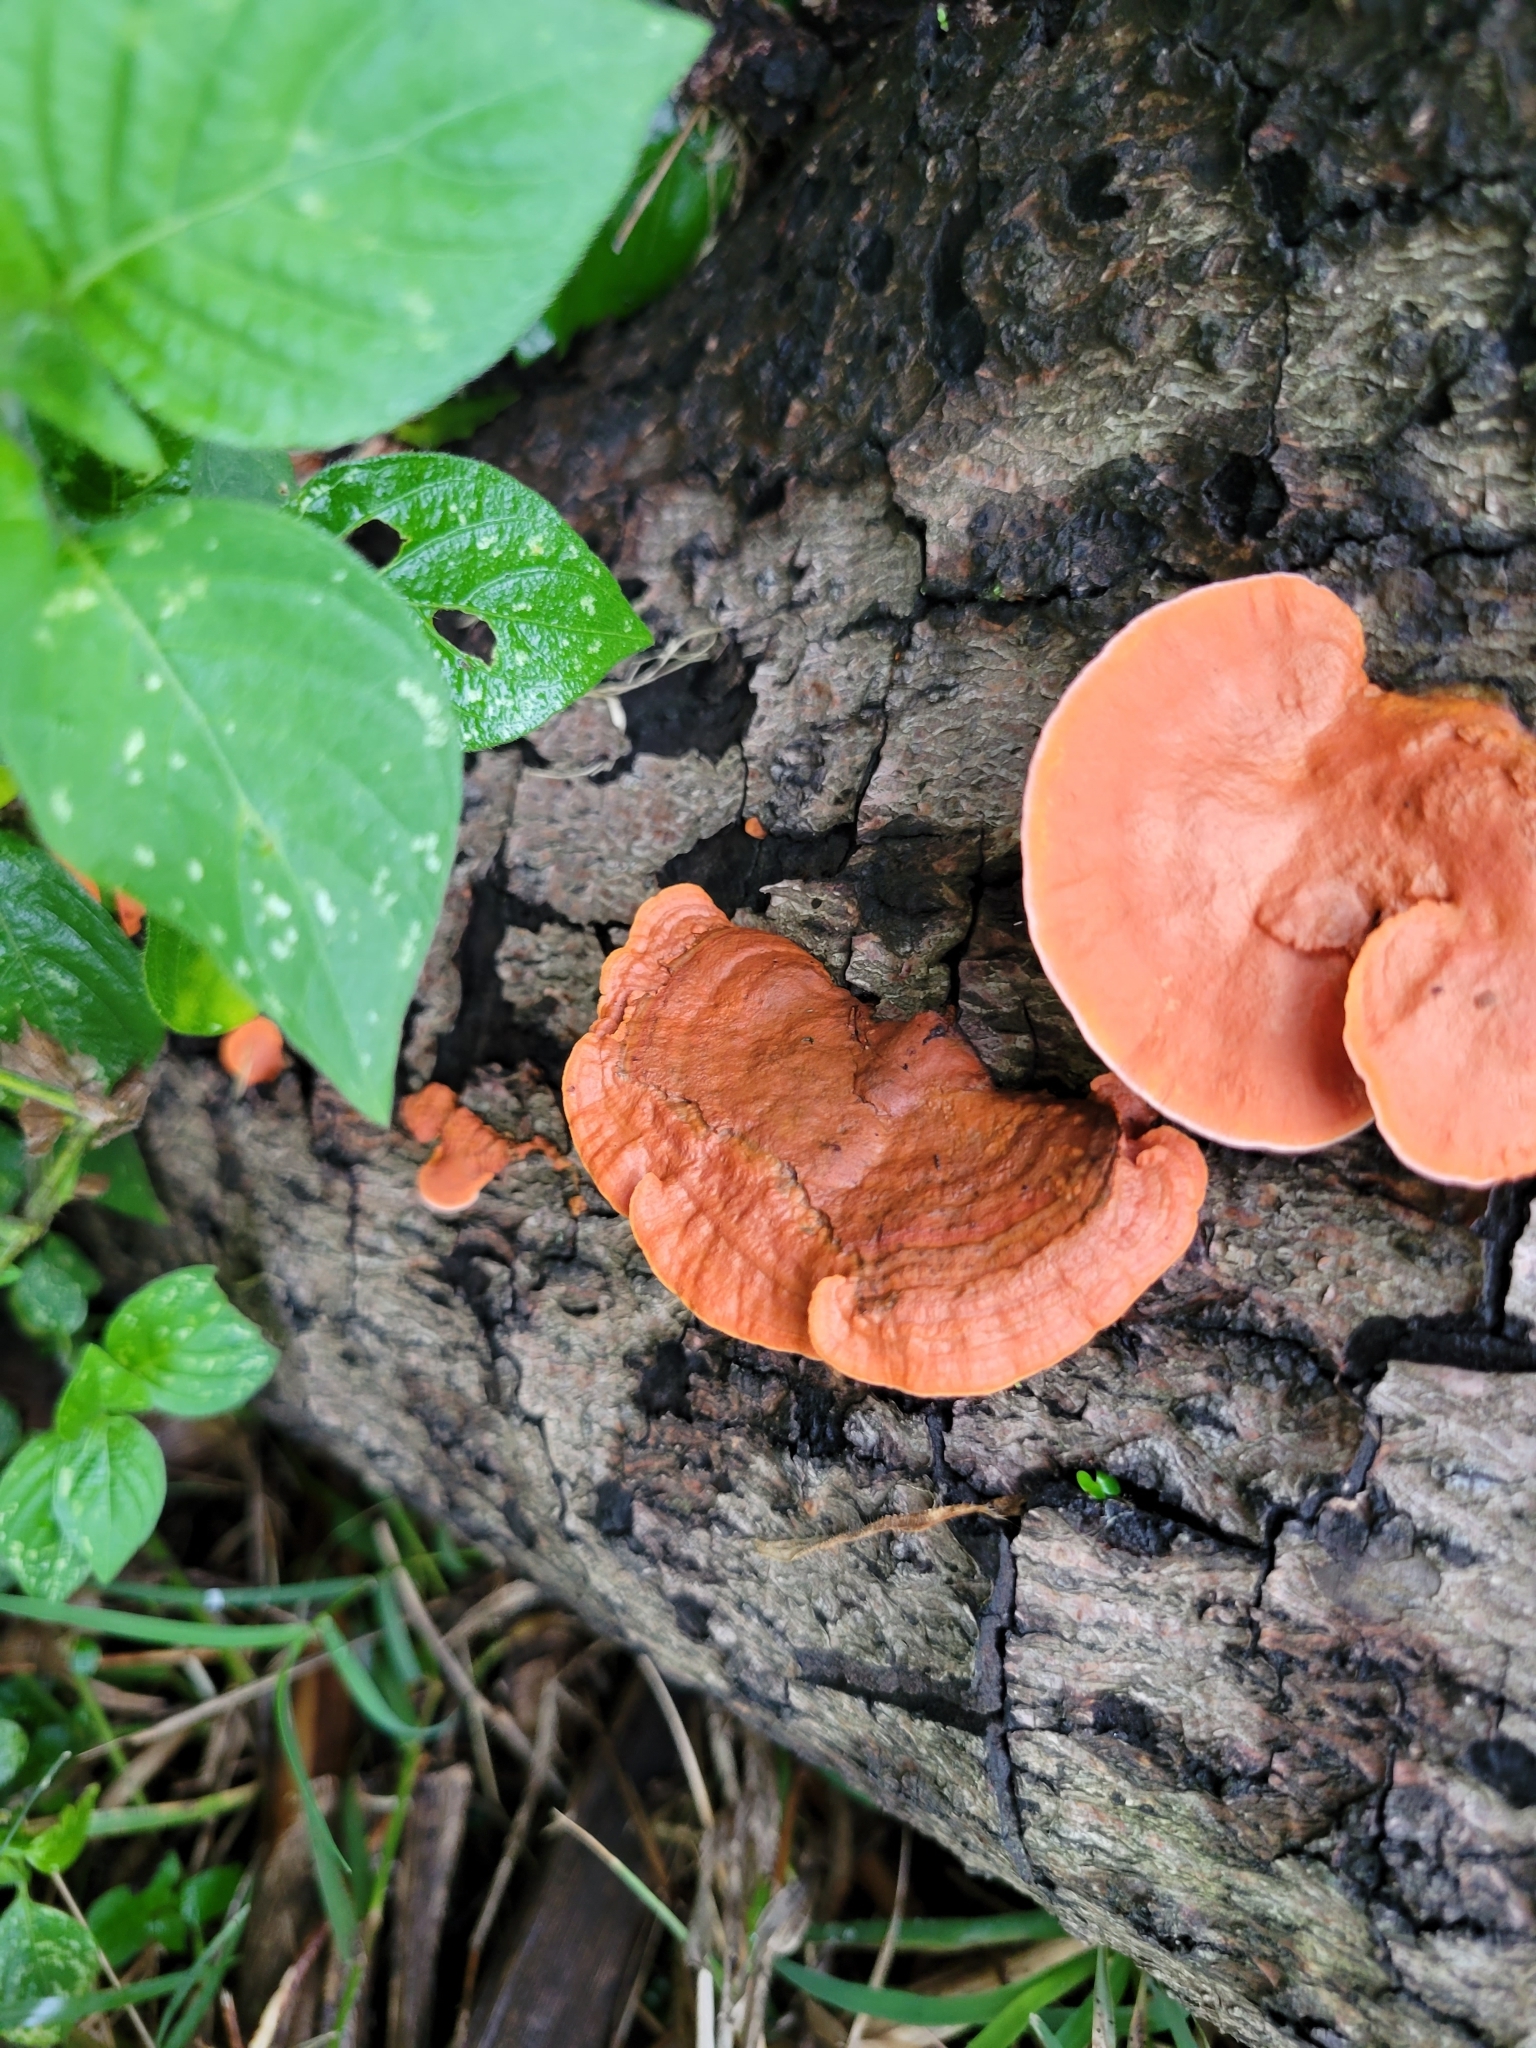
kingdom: Fungi
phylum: Basidiomycota
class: Agaricomycetes
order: Polyporales
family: Polyporaceae
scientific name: Polyporaceae
